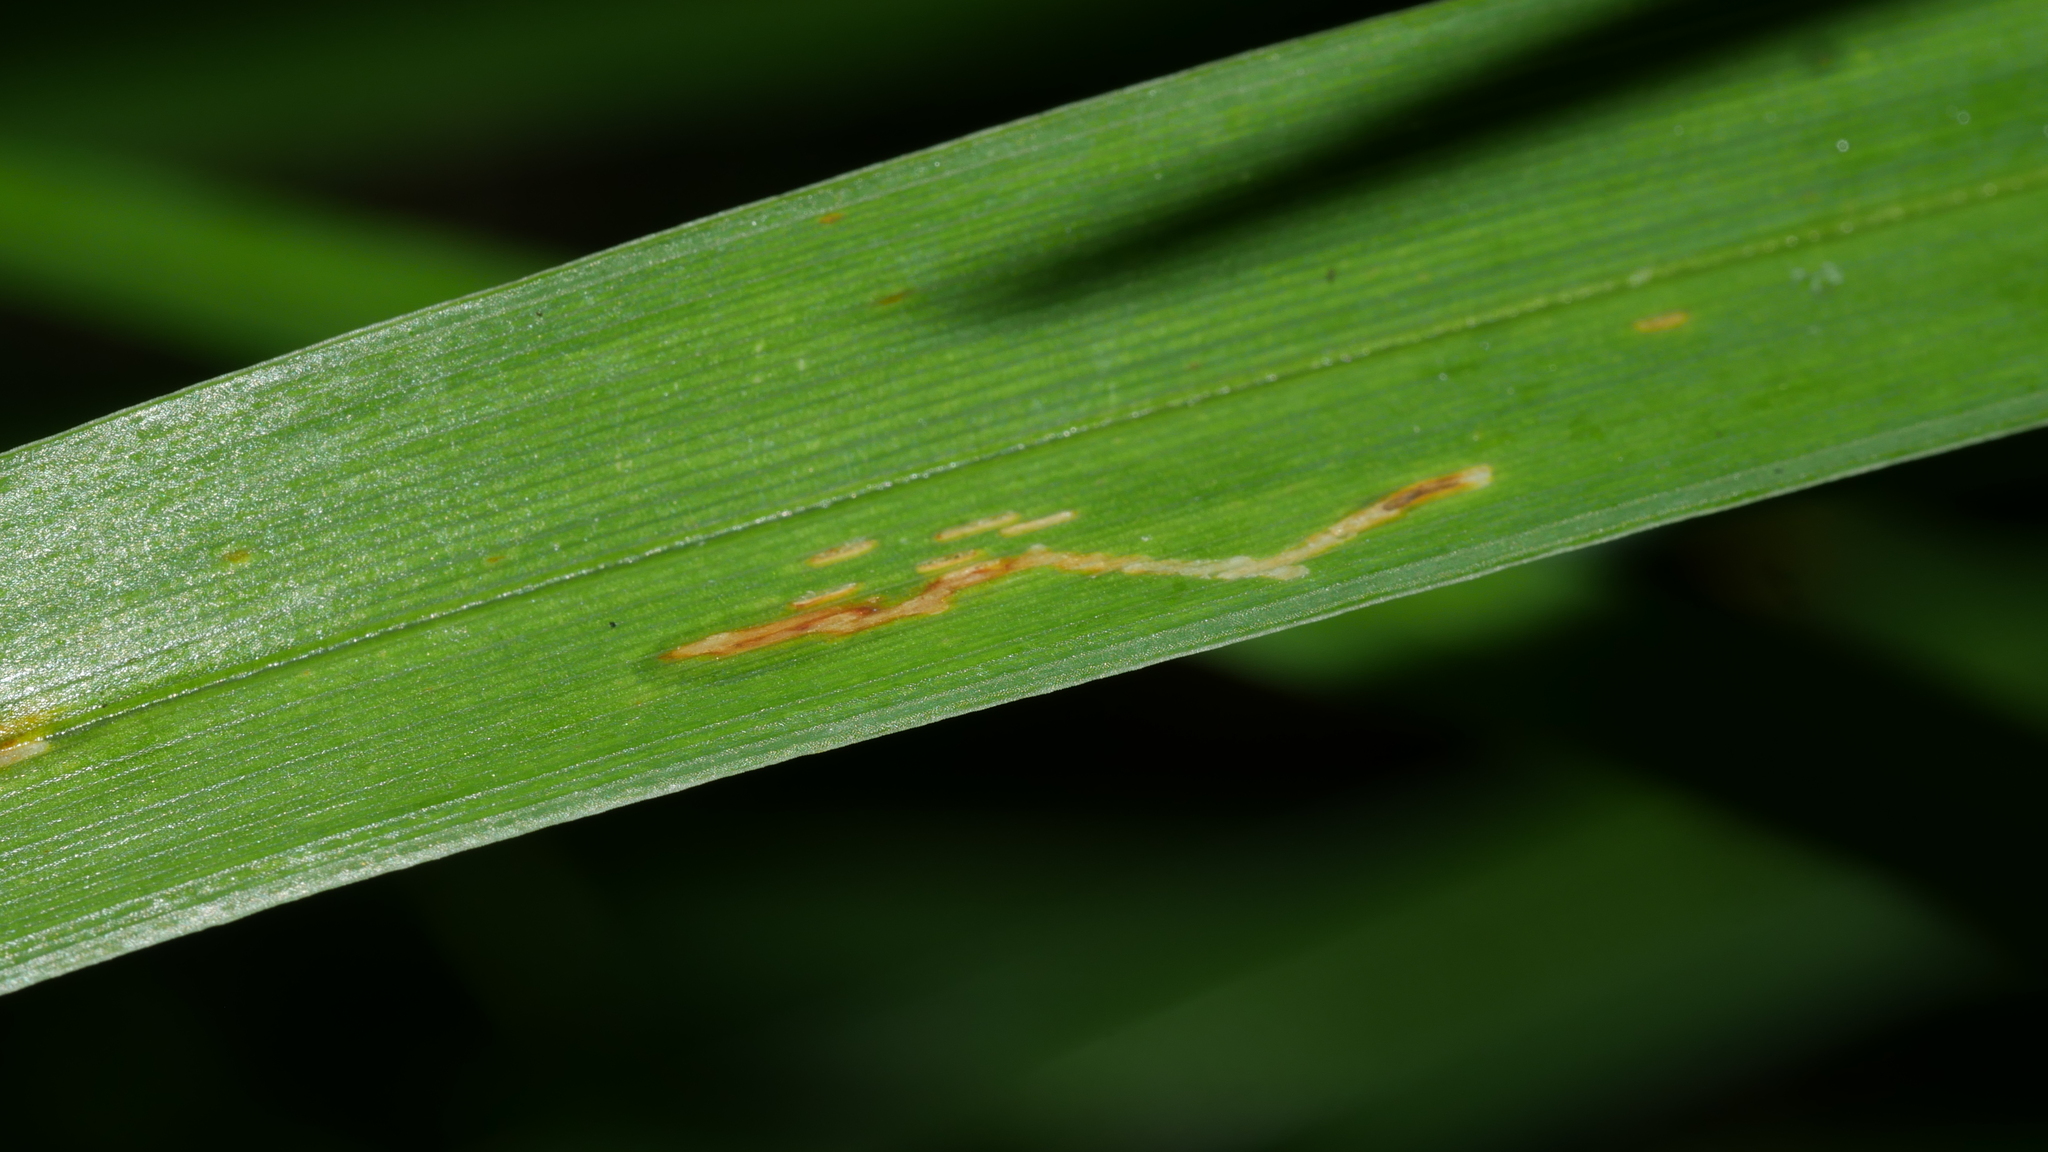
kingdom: Animalia
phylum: Arthropoda
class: Insecta
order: Diptera
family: Agromyzidae
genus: Ophiomyia
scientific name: Ophiomyia kwansonis
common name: Daylily leafminer
